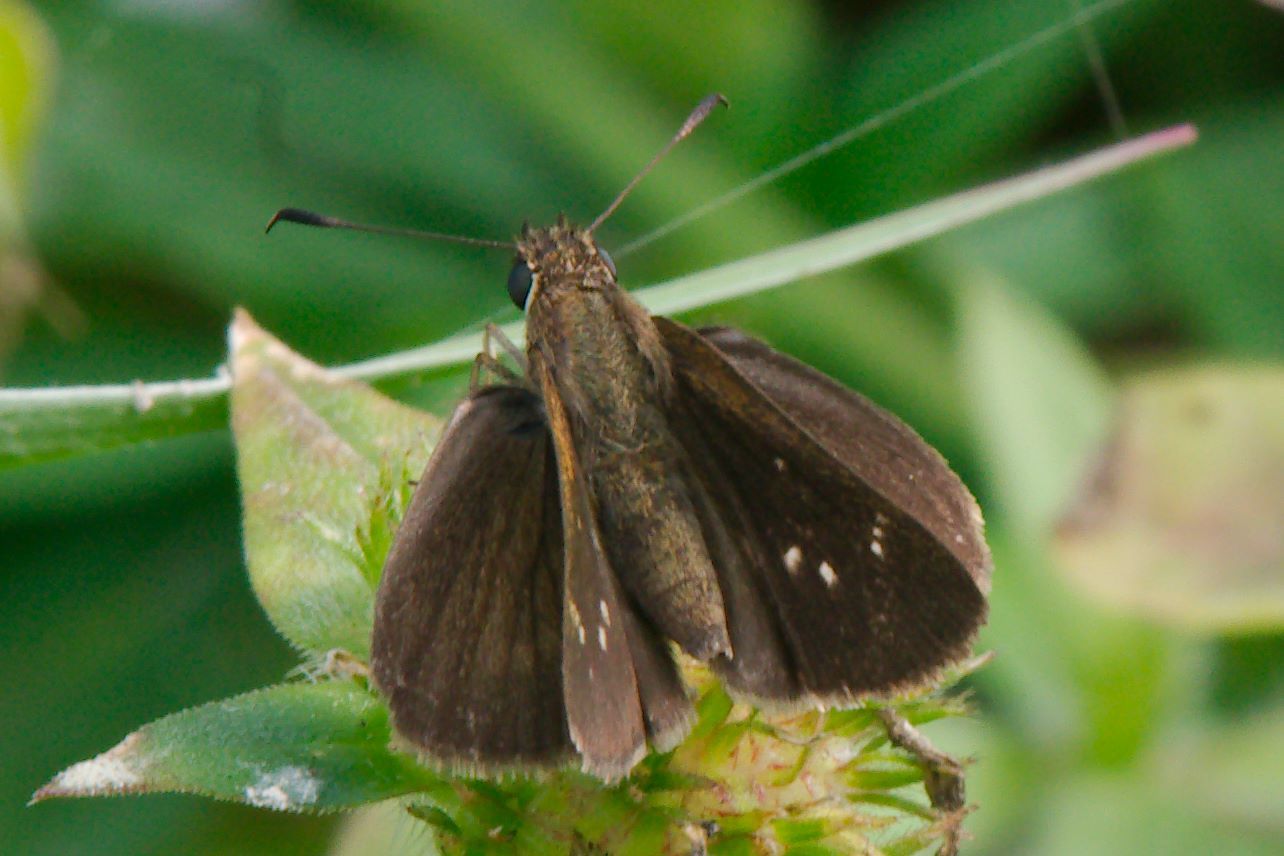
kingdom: Animalia
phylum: Arthropoda
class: Insecta
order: Lepidoptera
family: Hesperiidae
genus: Cymaenes
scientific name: Cymaenes tripunctus
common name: Dingy dotted skipper
